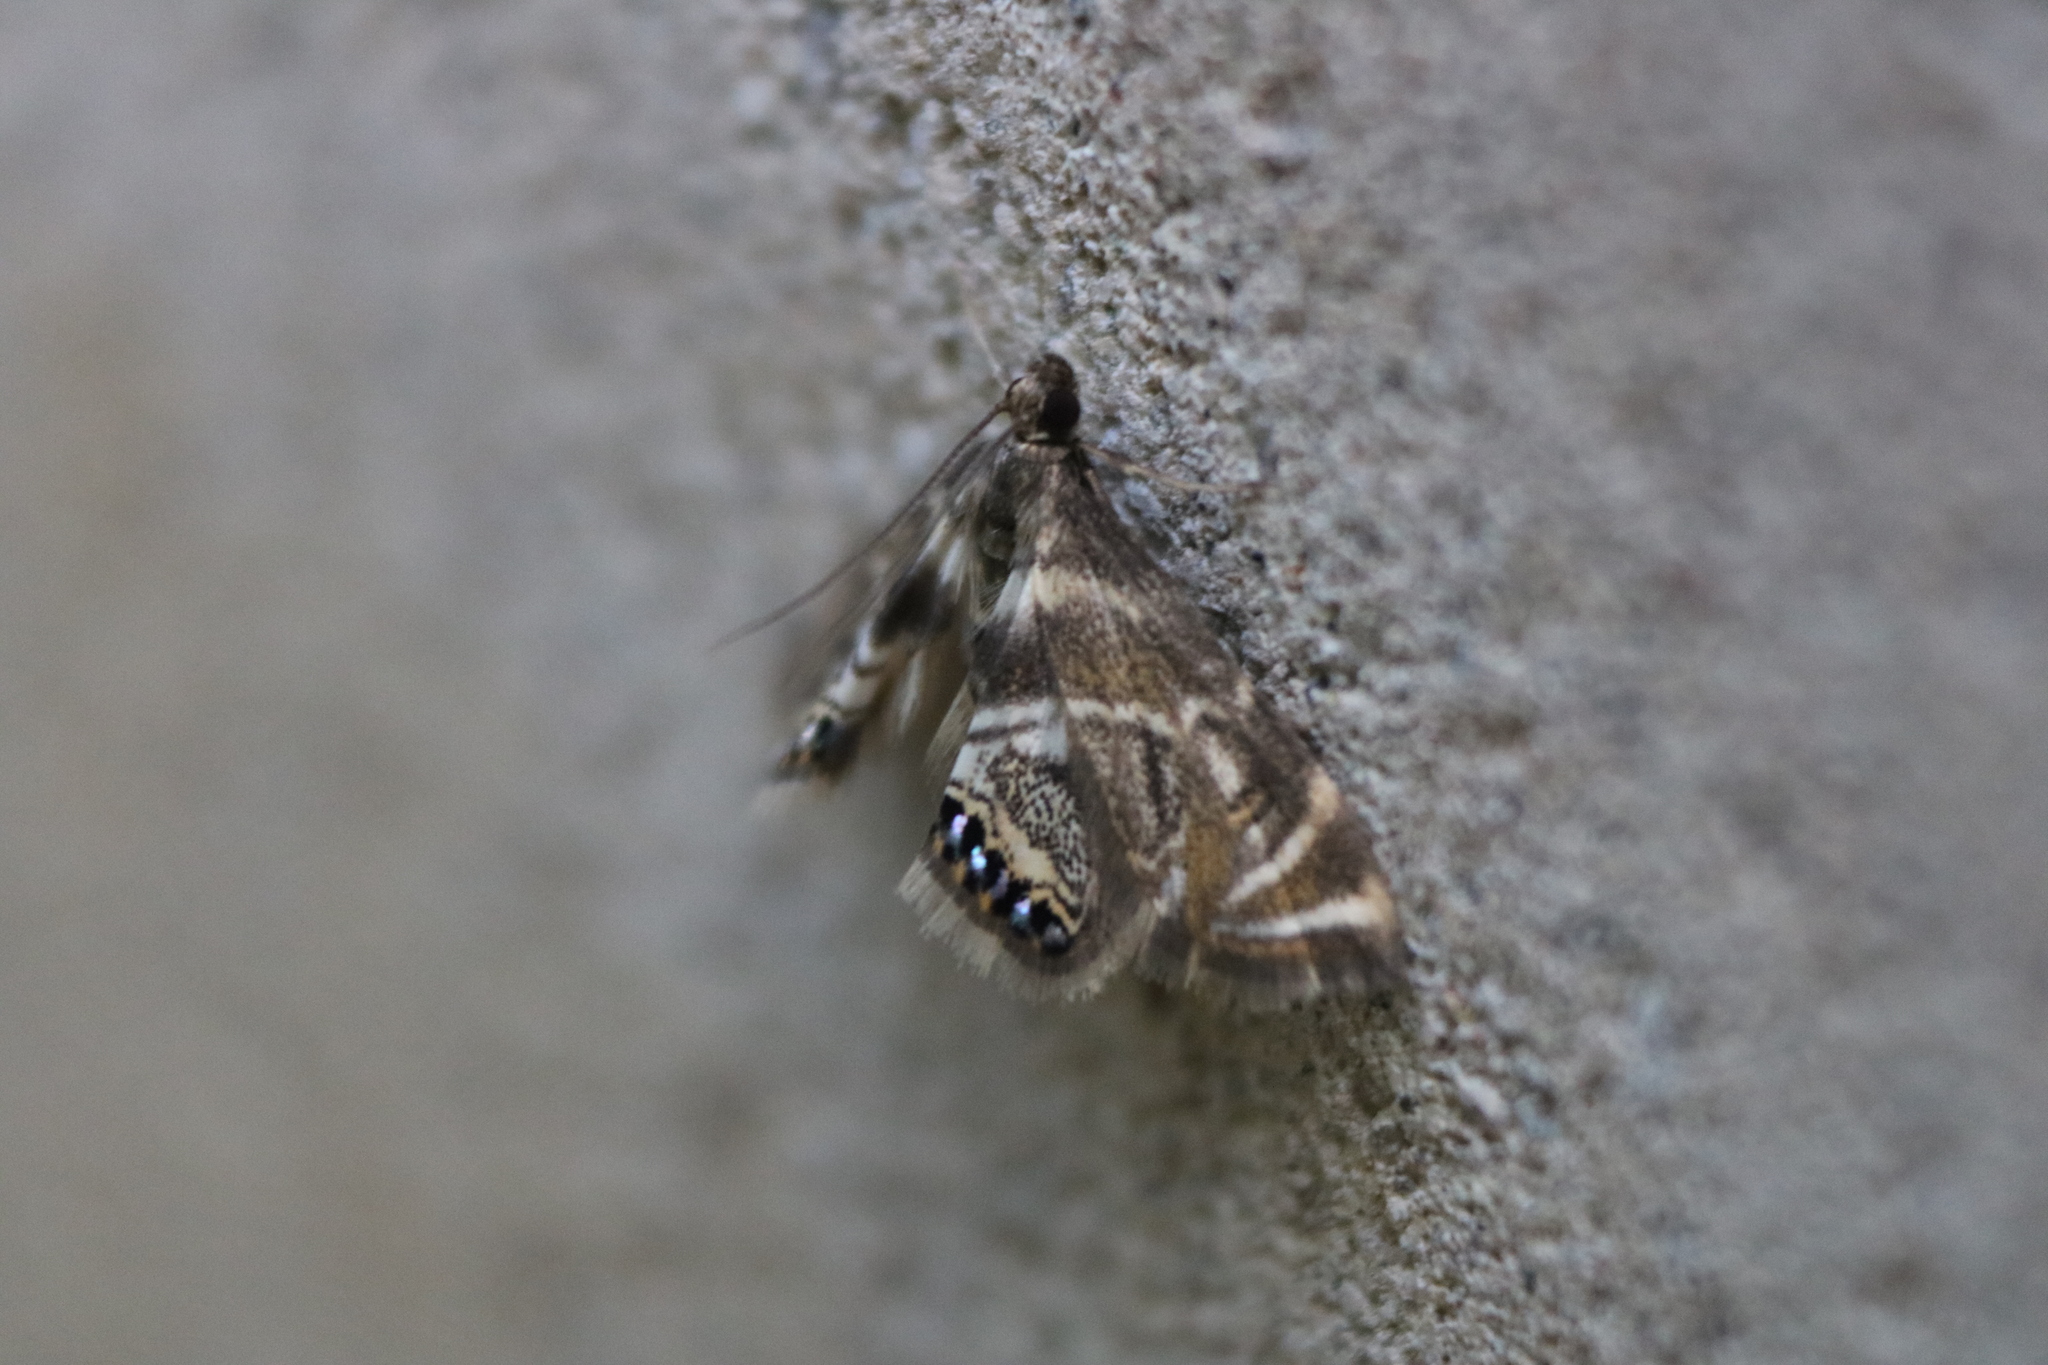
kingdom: Animalia
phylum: Arthropoda
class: Insecta
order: Lepidoptera
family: Crambidae
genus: Petrophila
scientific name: Petrophila canadensis
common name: Canadian petrophila
